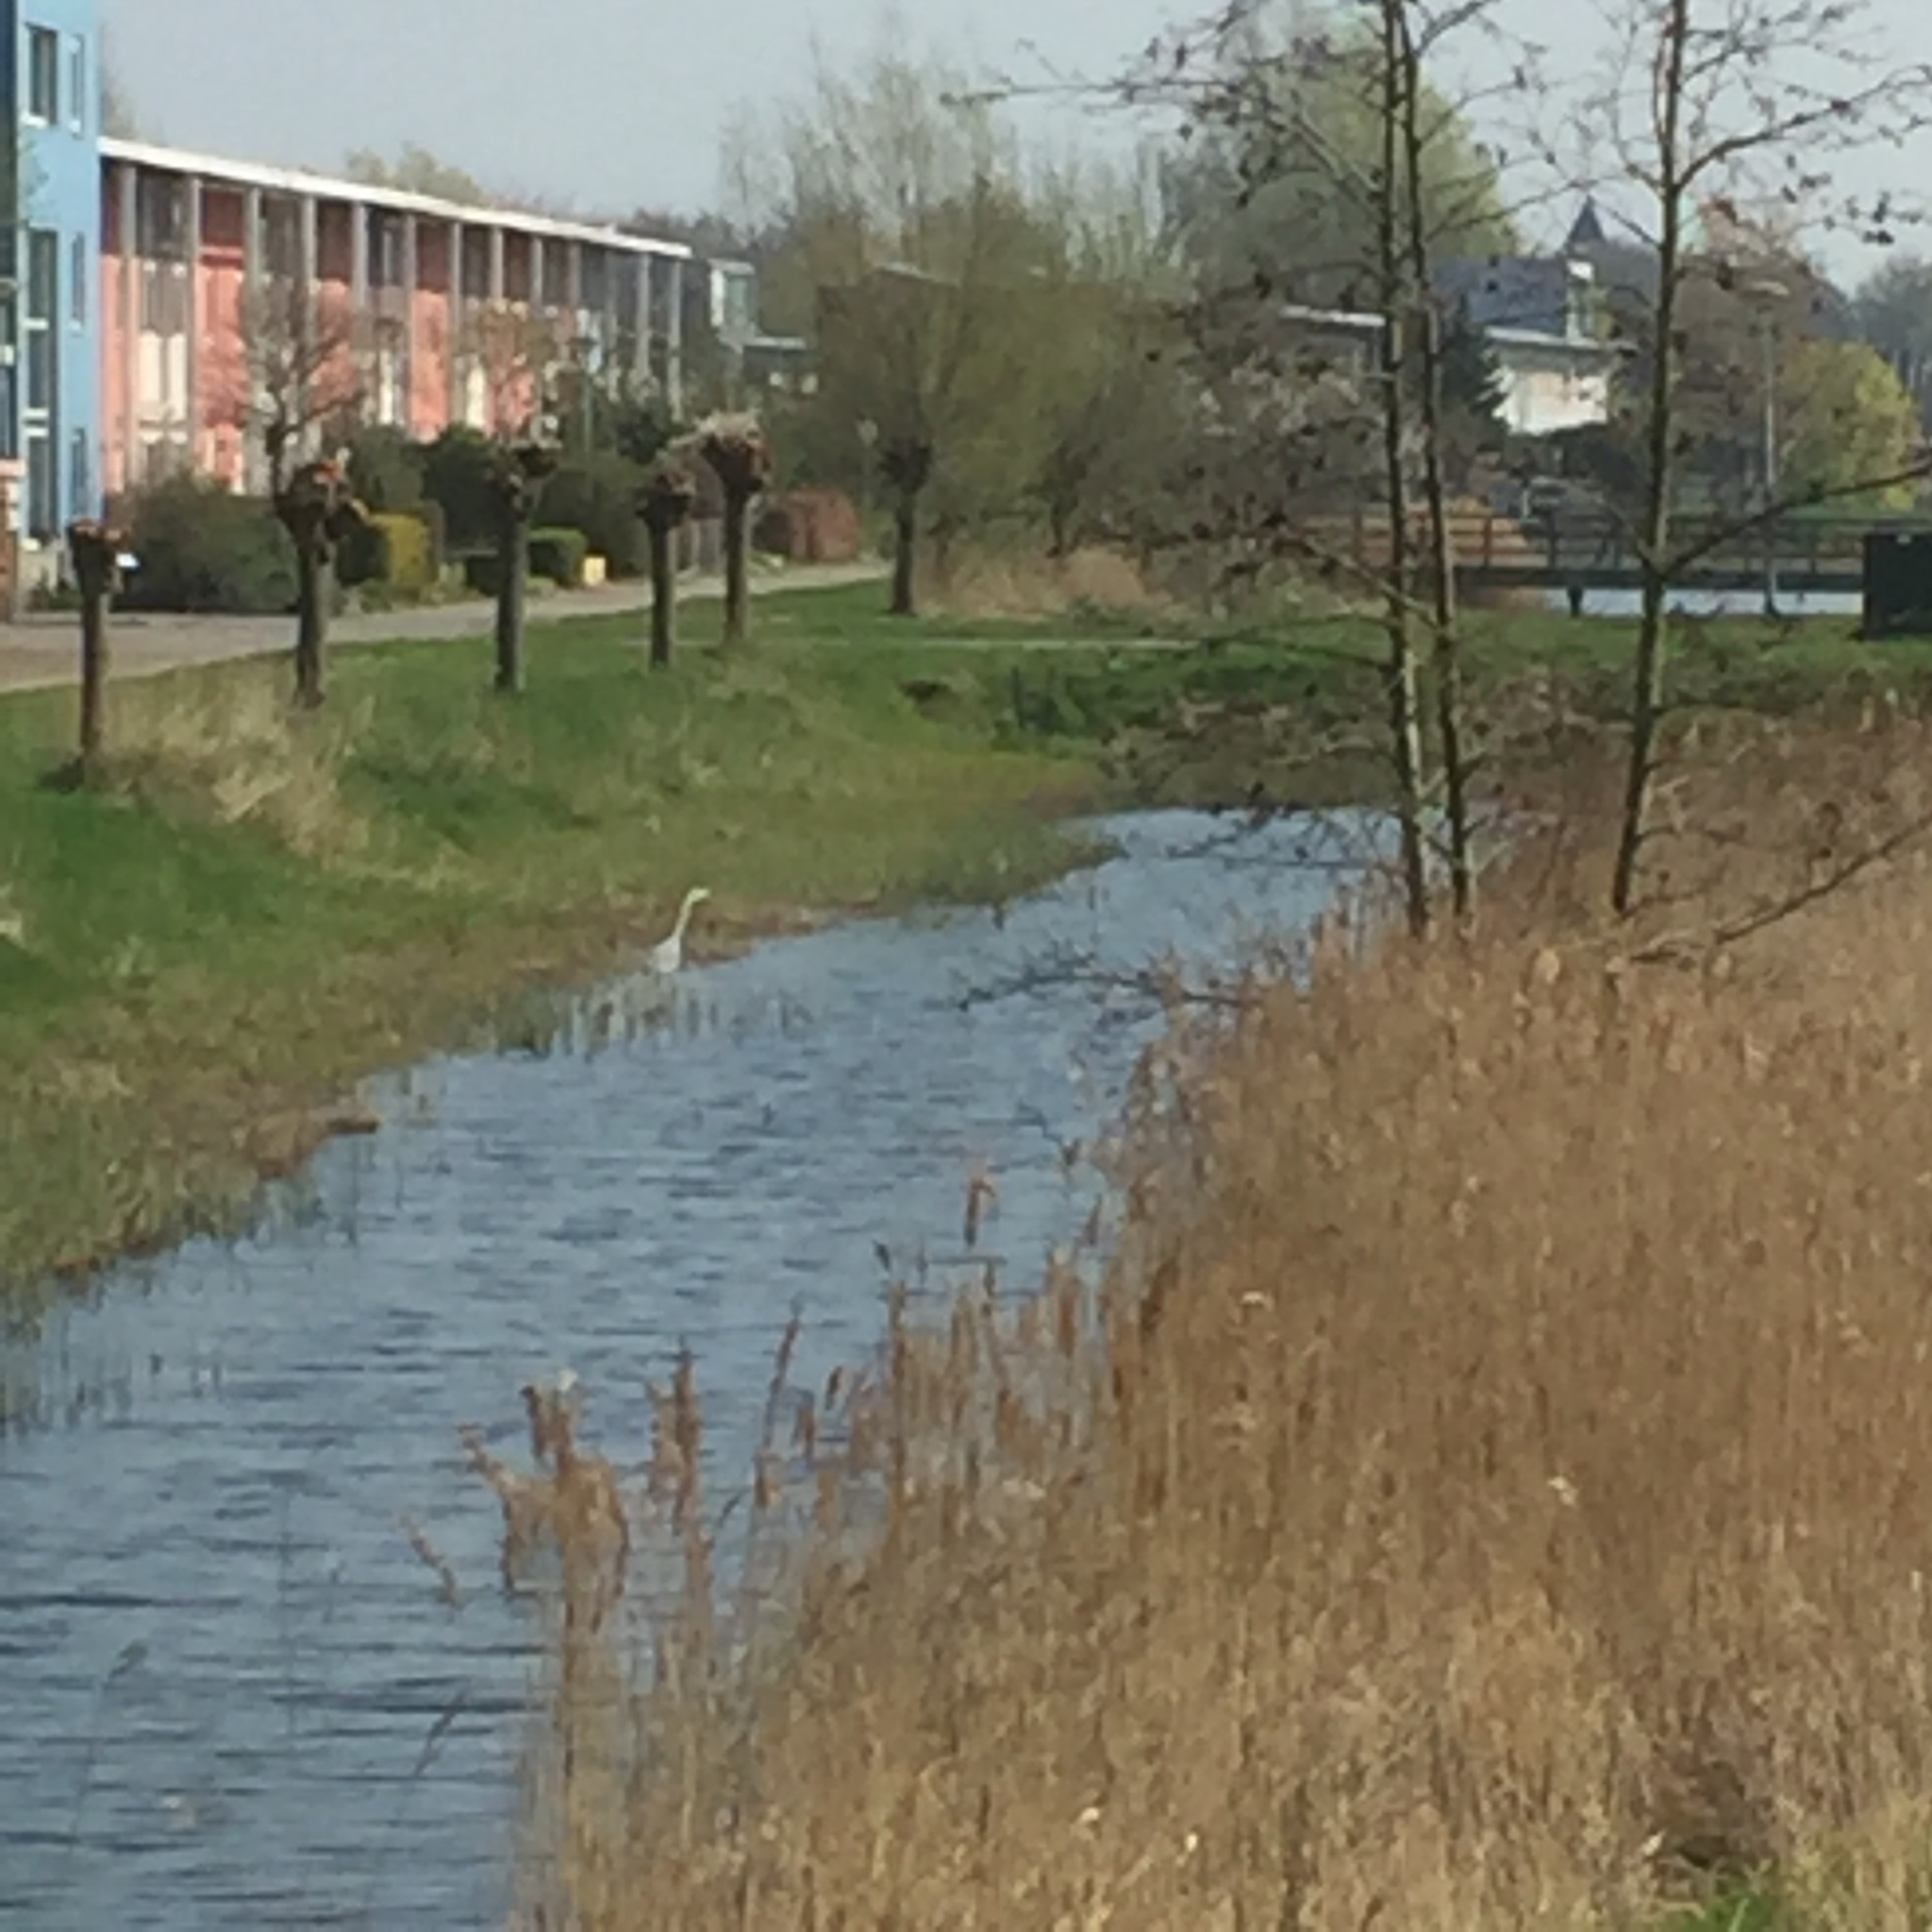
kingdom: Animalia
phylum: Chordata
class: Aves
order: Pelecaniformes
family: Ardeidae
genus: Ardea
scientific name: Ardea cinerea
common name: Grey heron
